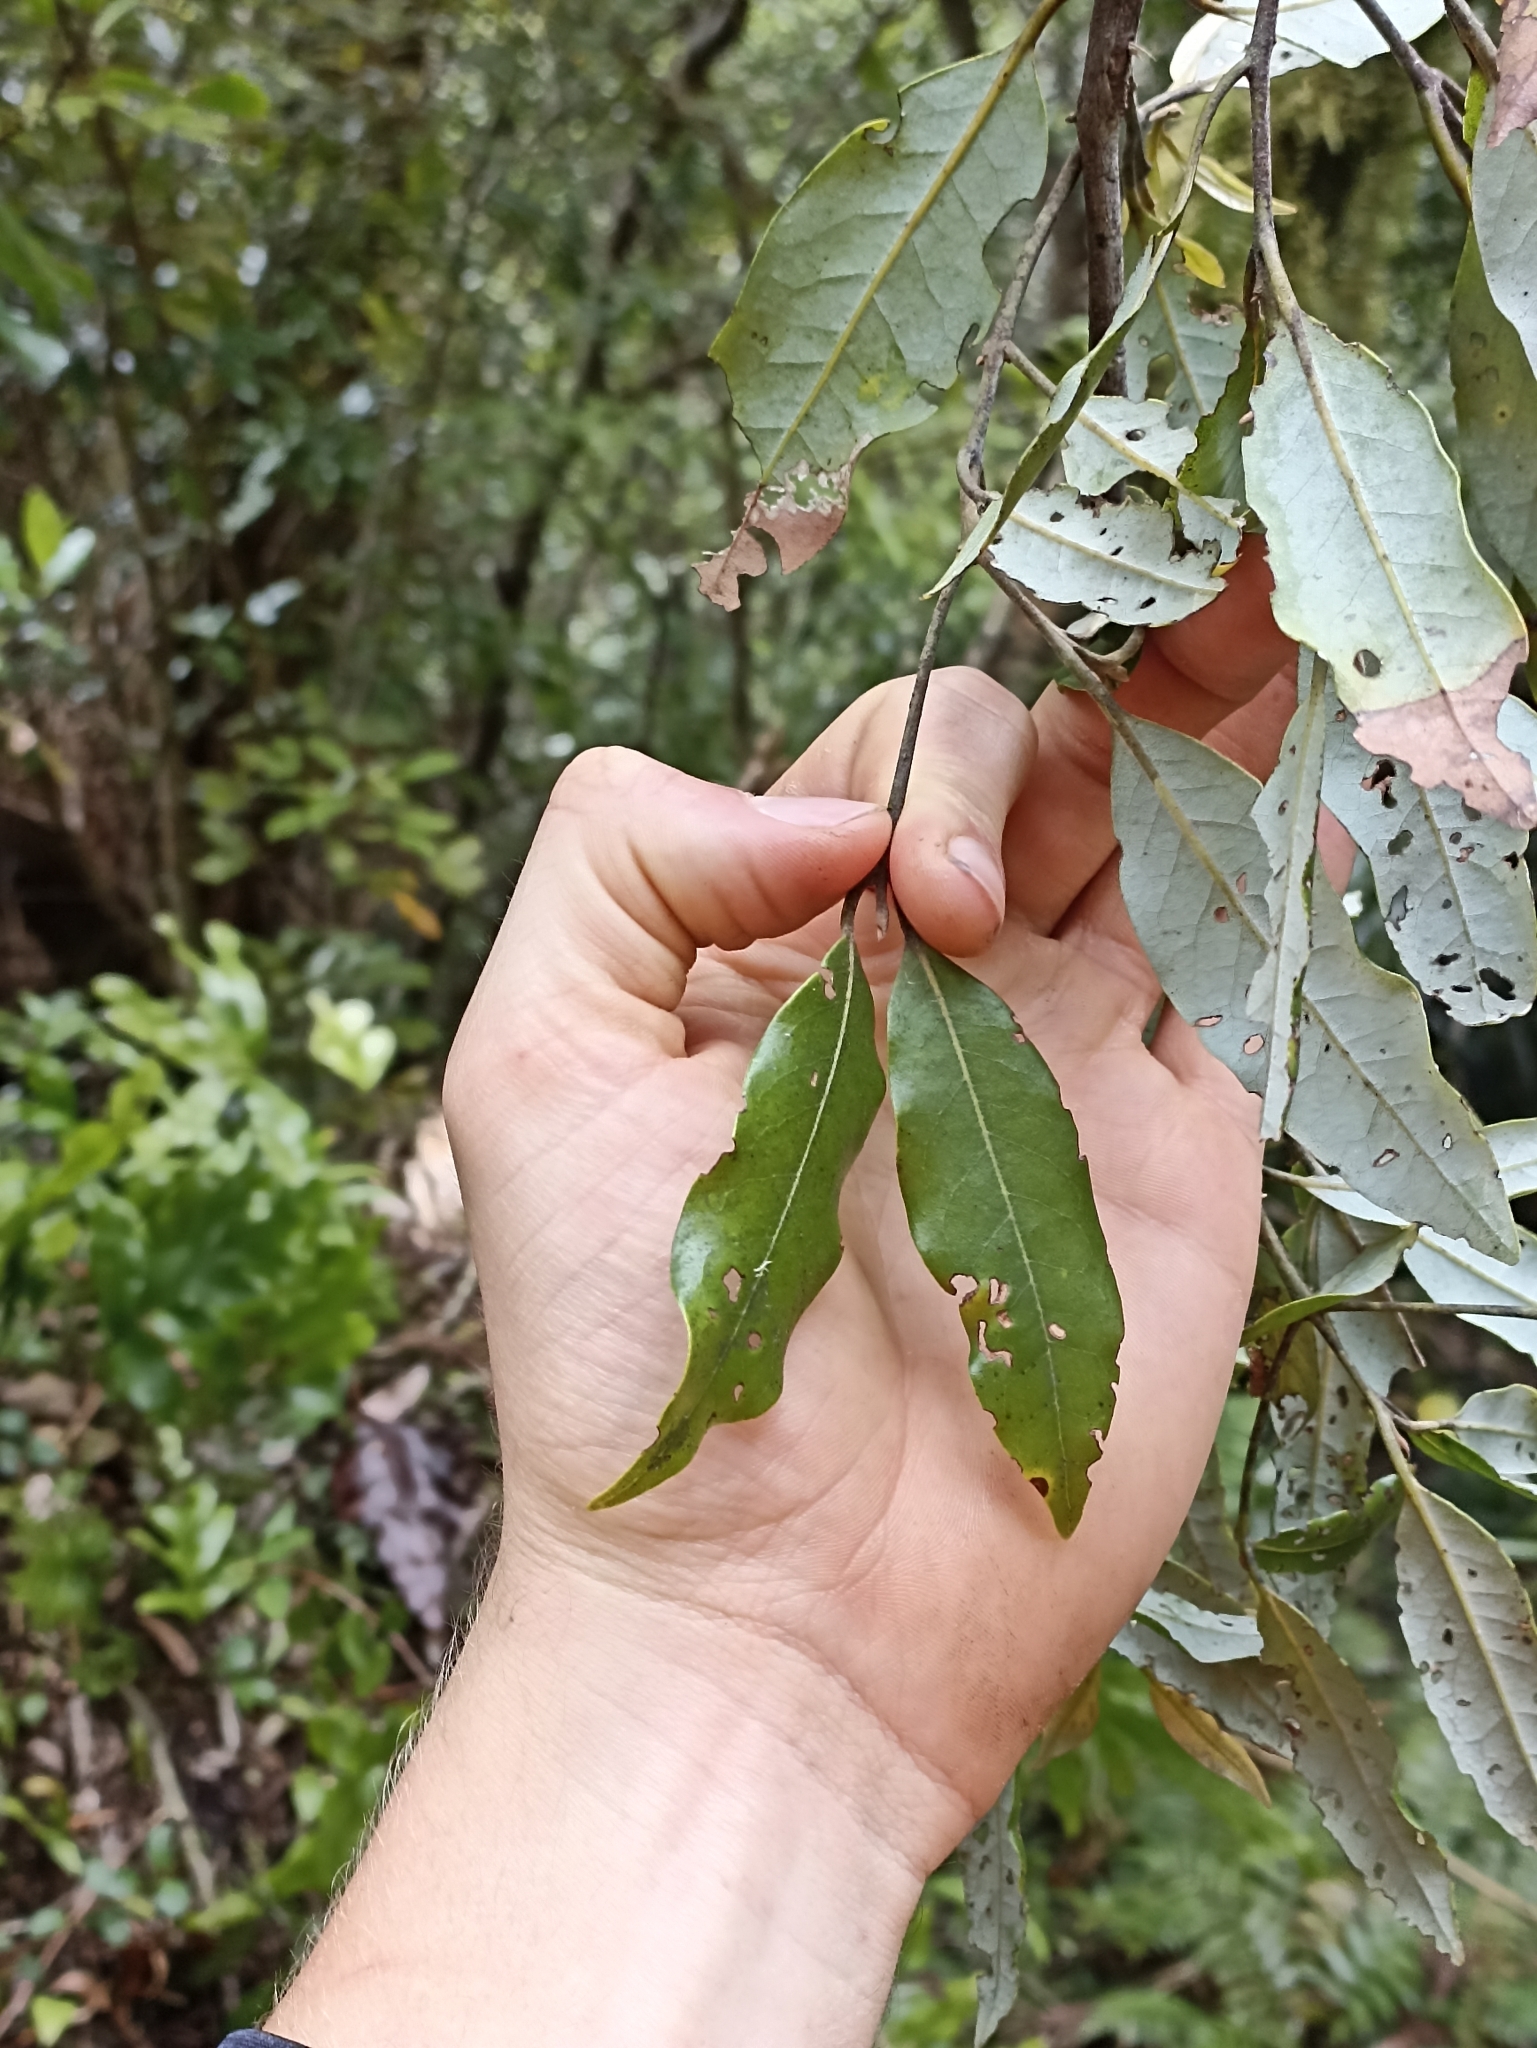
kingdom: Plantae
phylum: Tracheophyta
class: Magnoliopsida
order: Laurales
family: Lauraceae
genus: Beilschmiedia
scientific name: Beilschmiedia tawa
